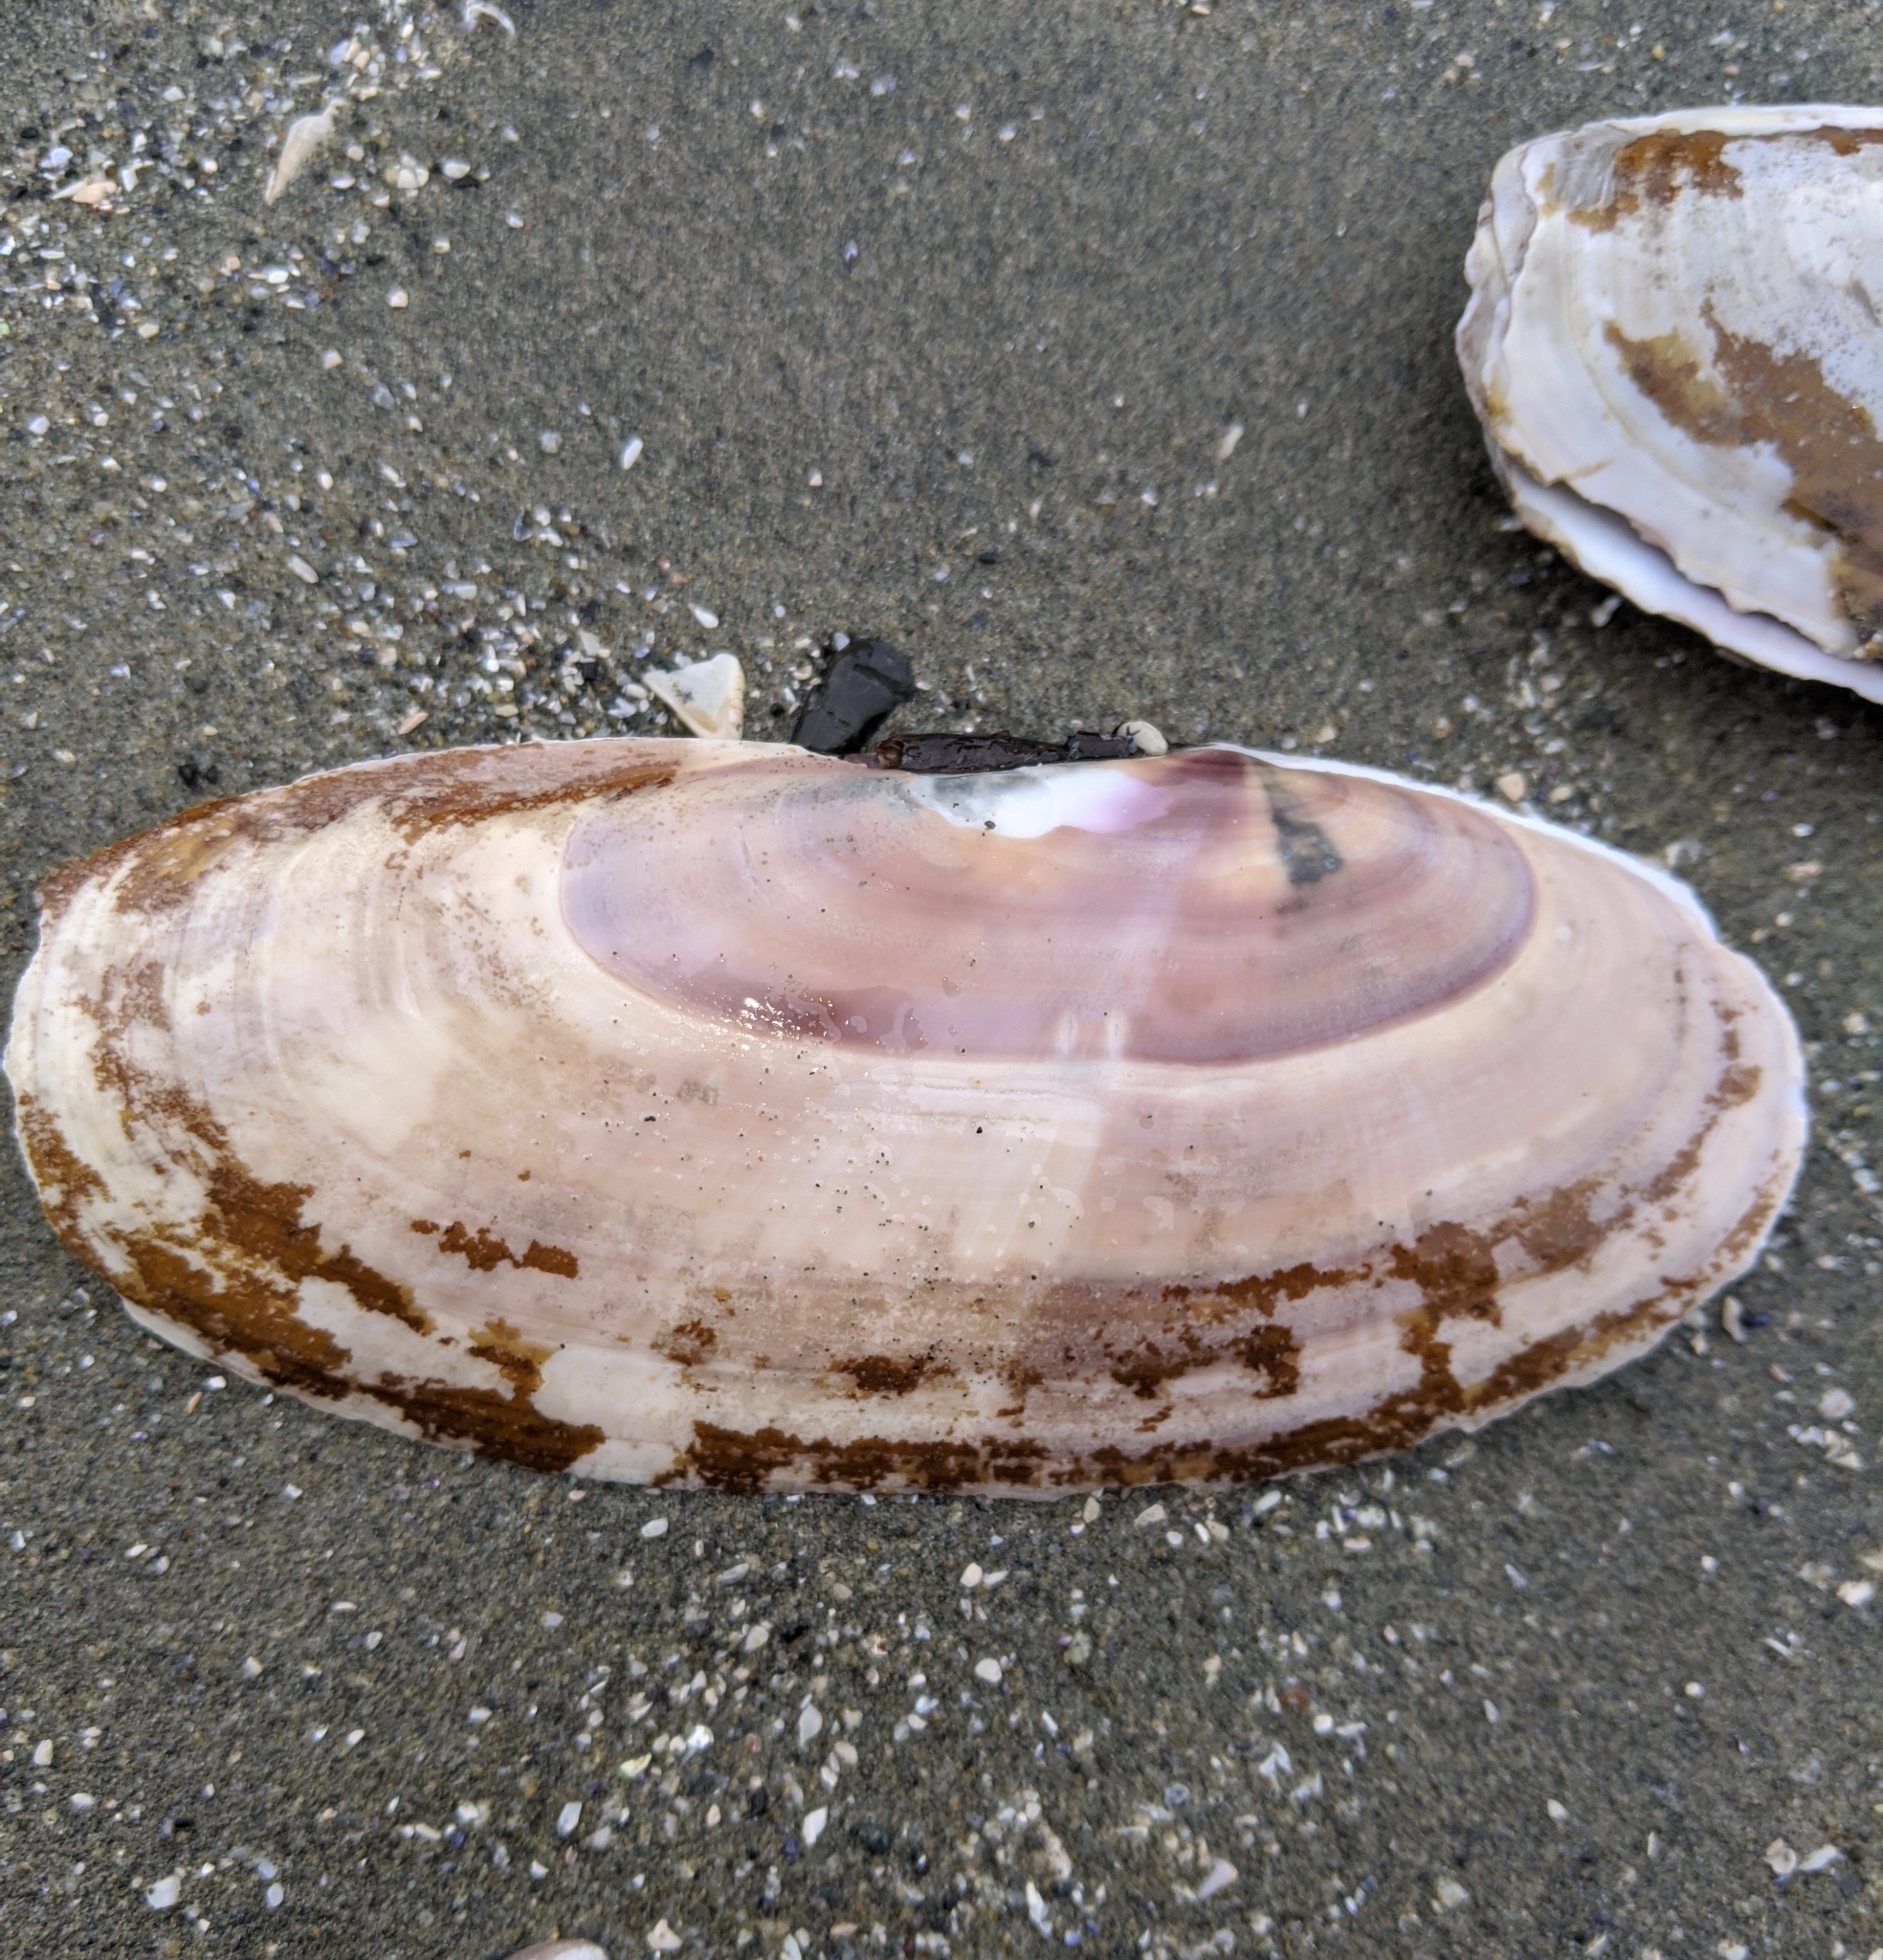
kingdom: Animalia
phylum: Mollusca
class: Bivalvia
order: Adapedonta
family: Pharidae
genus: Siliqua
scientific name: Siliqua patula
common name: Pacific razor clam
